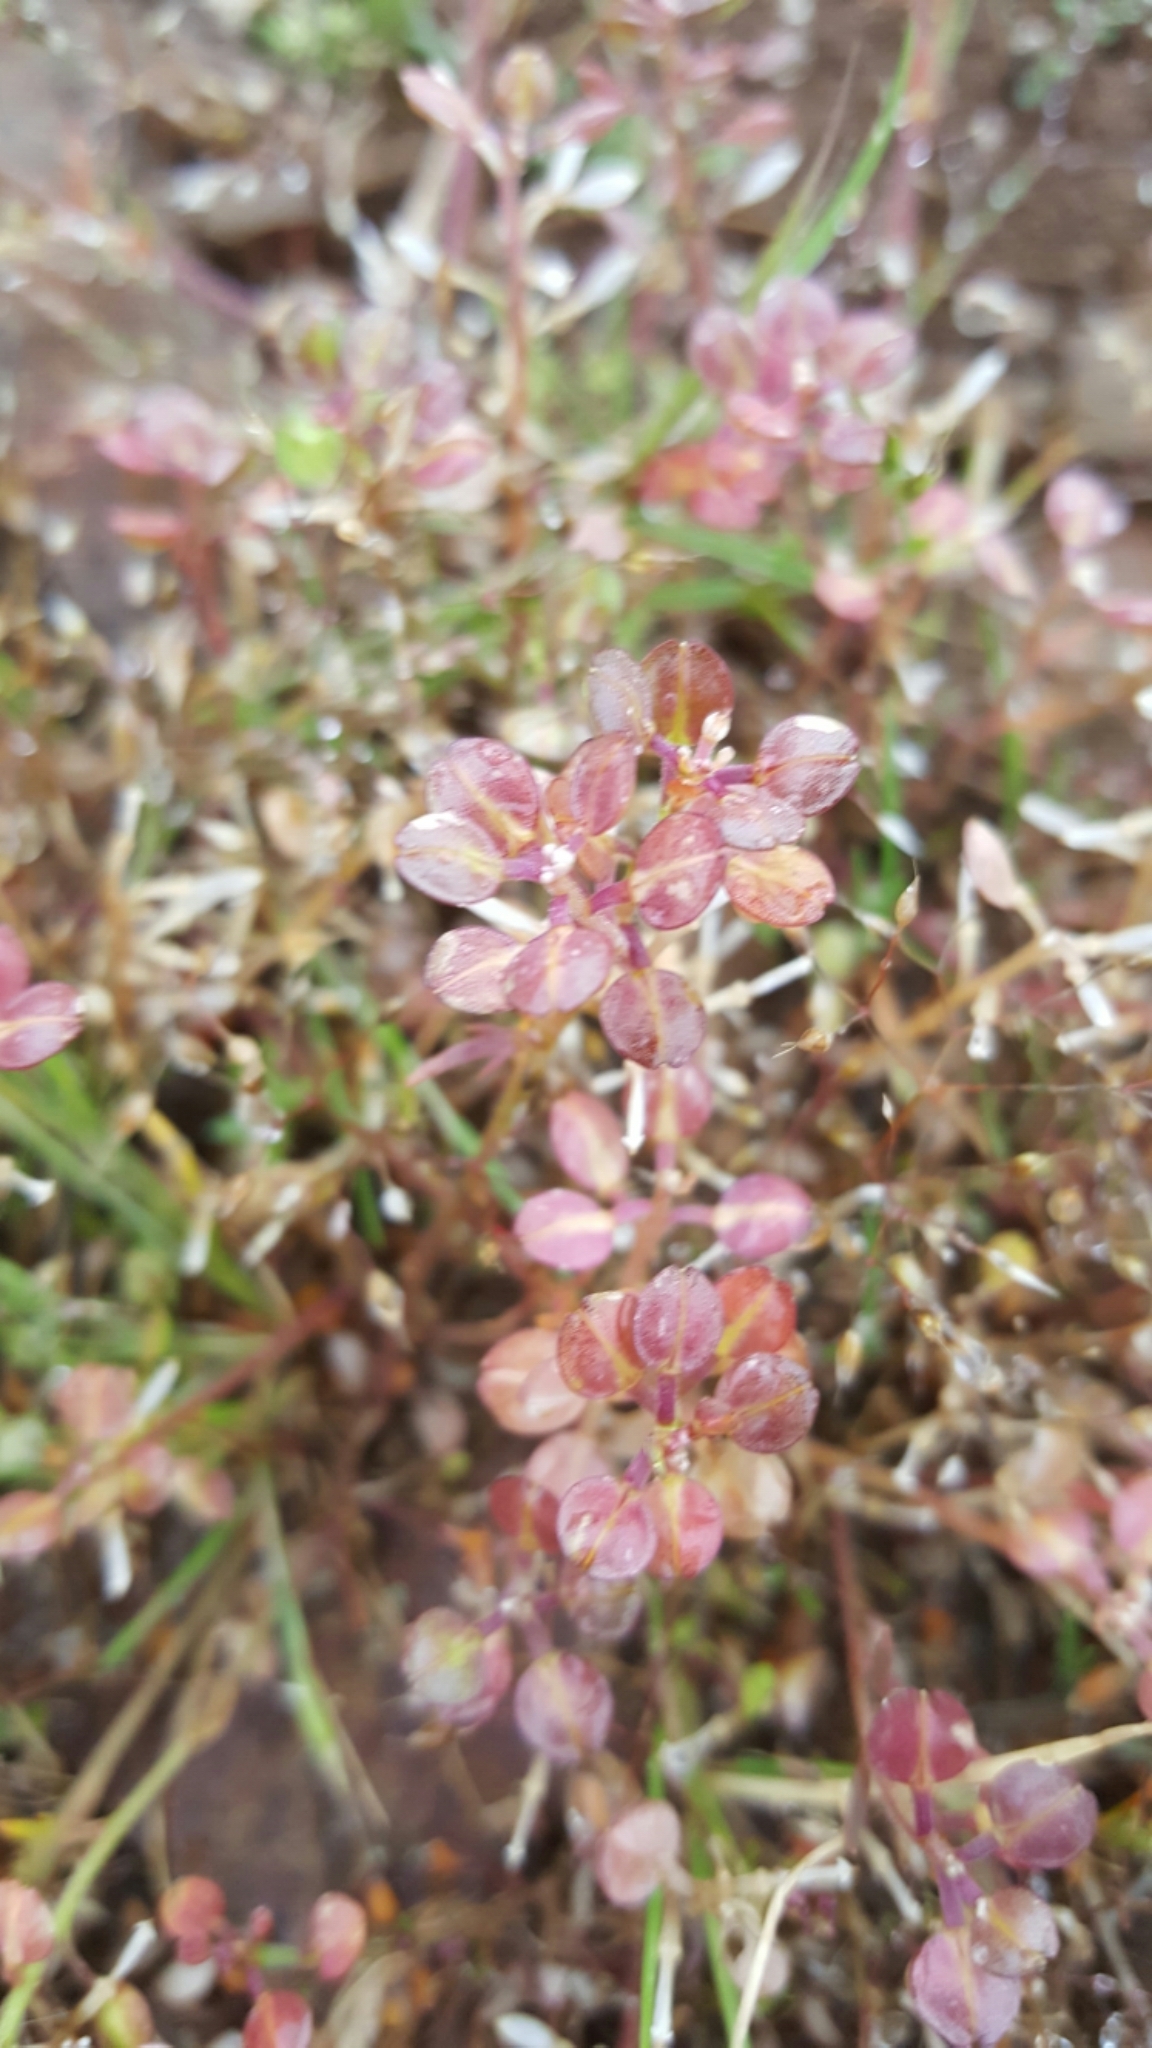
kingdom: Plantae
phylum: Tracheophyta
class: Magnoliopsida
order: Brassicales
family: Brassicaceae
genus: Lepidium
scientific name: Lepidium nitidum
